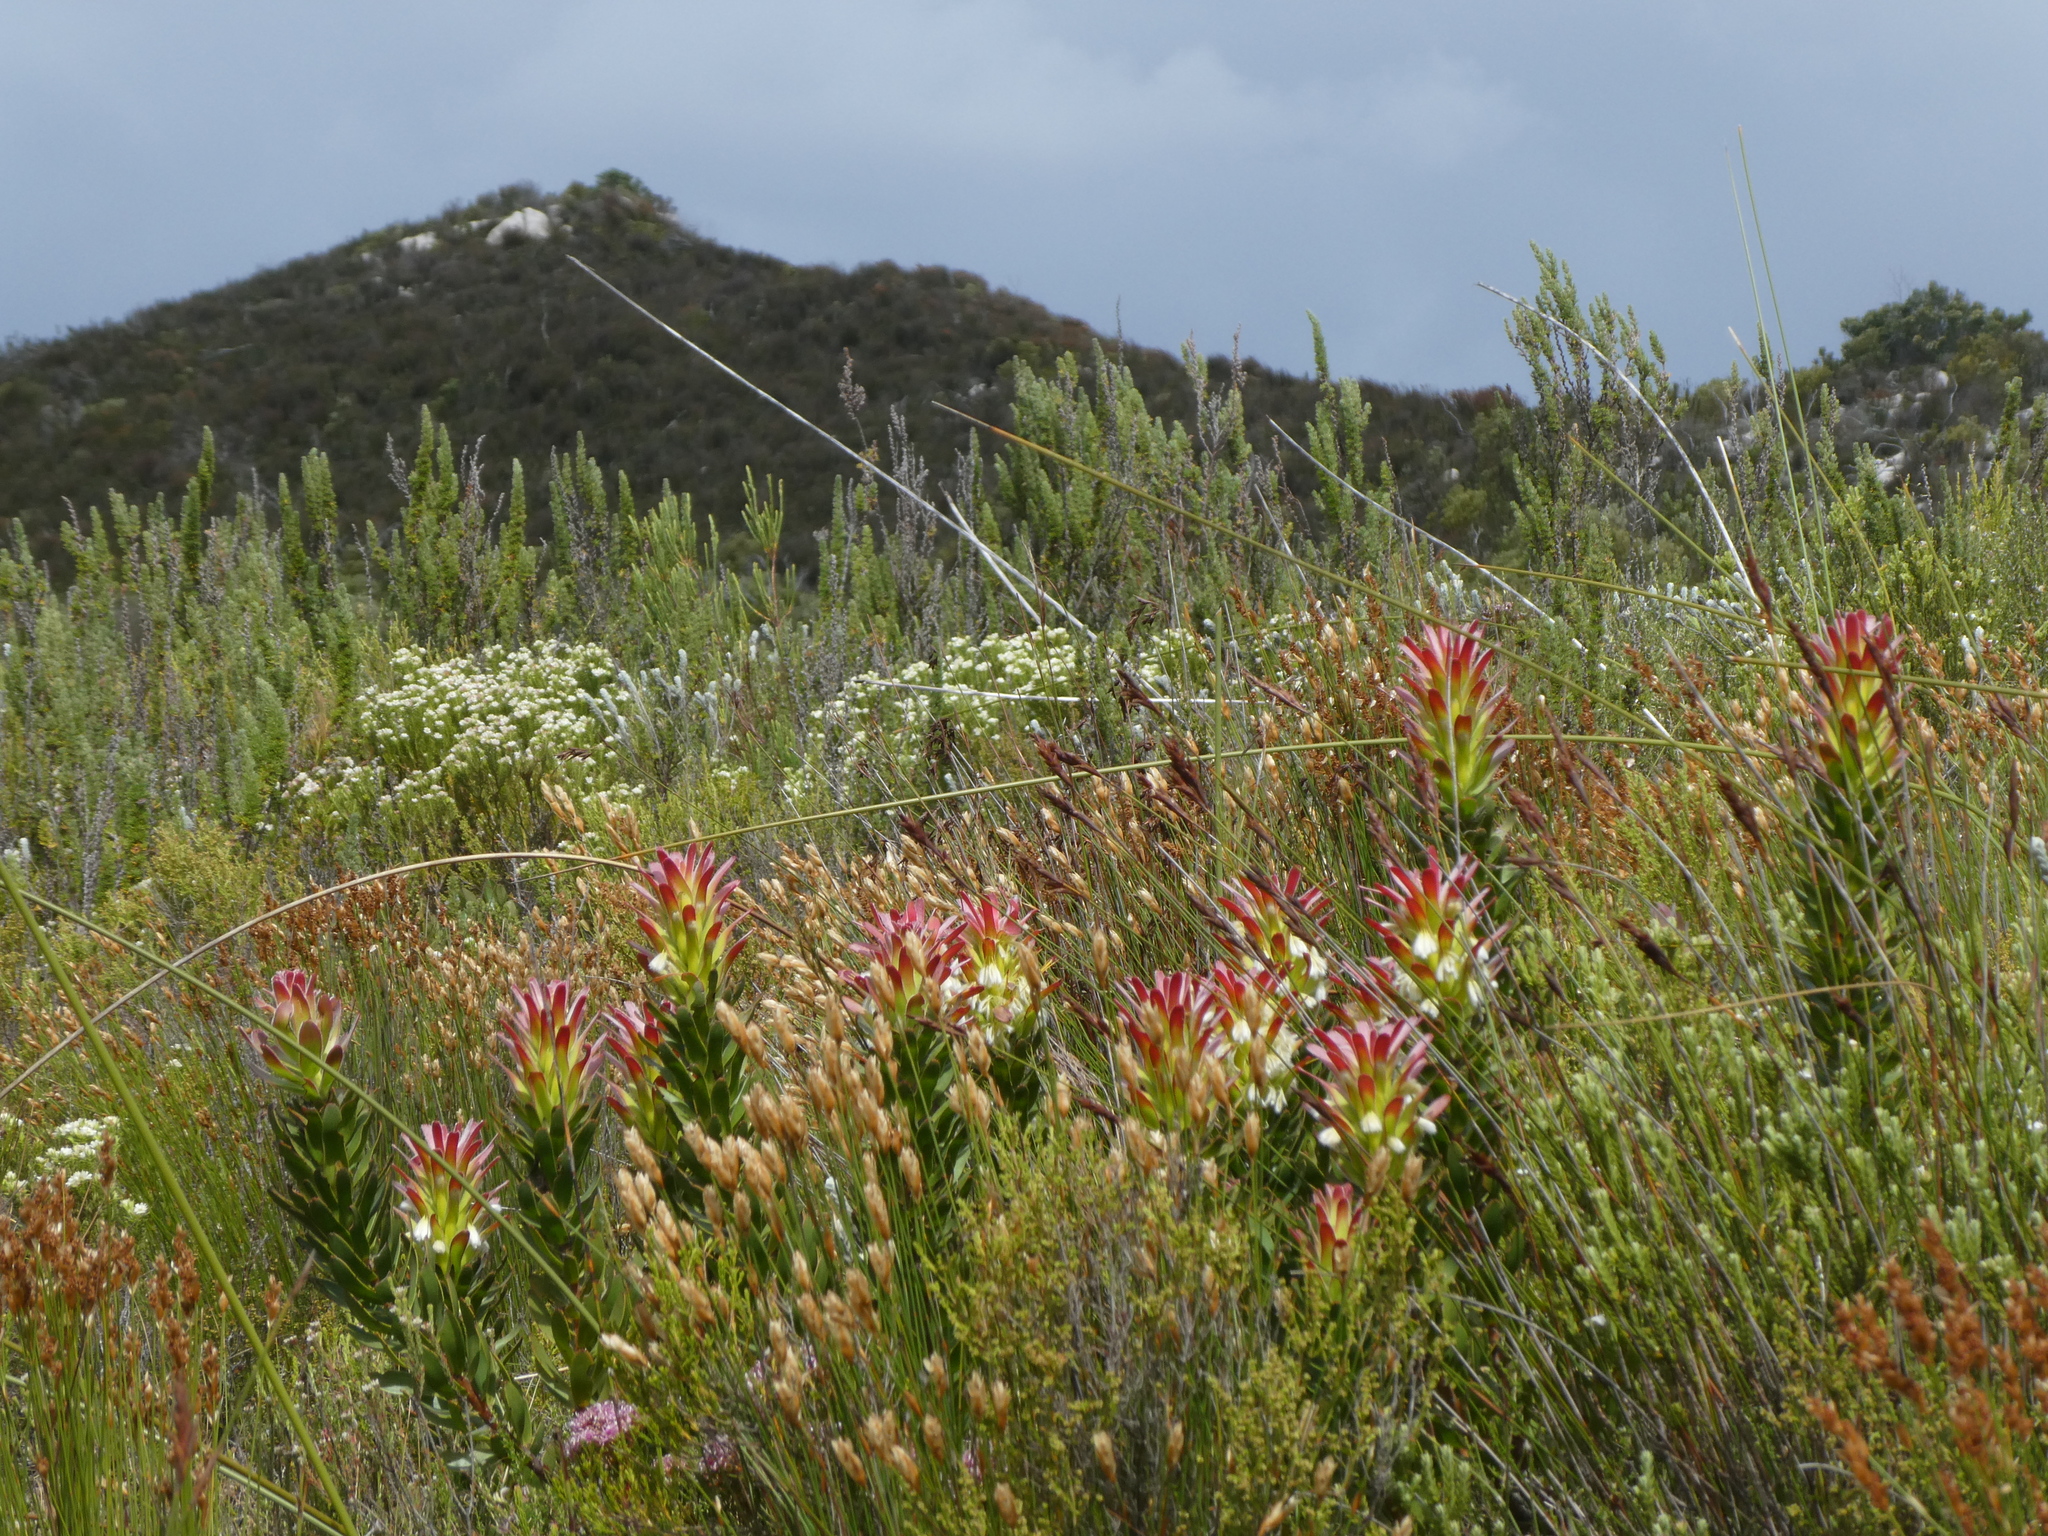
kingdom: Plantae
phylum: Tracheophyta
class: Magnoliopsida
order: Proteales
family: Proteaceae
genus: Mimetes
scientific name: Mimetes cucullatus
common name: Common pagoda
